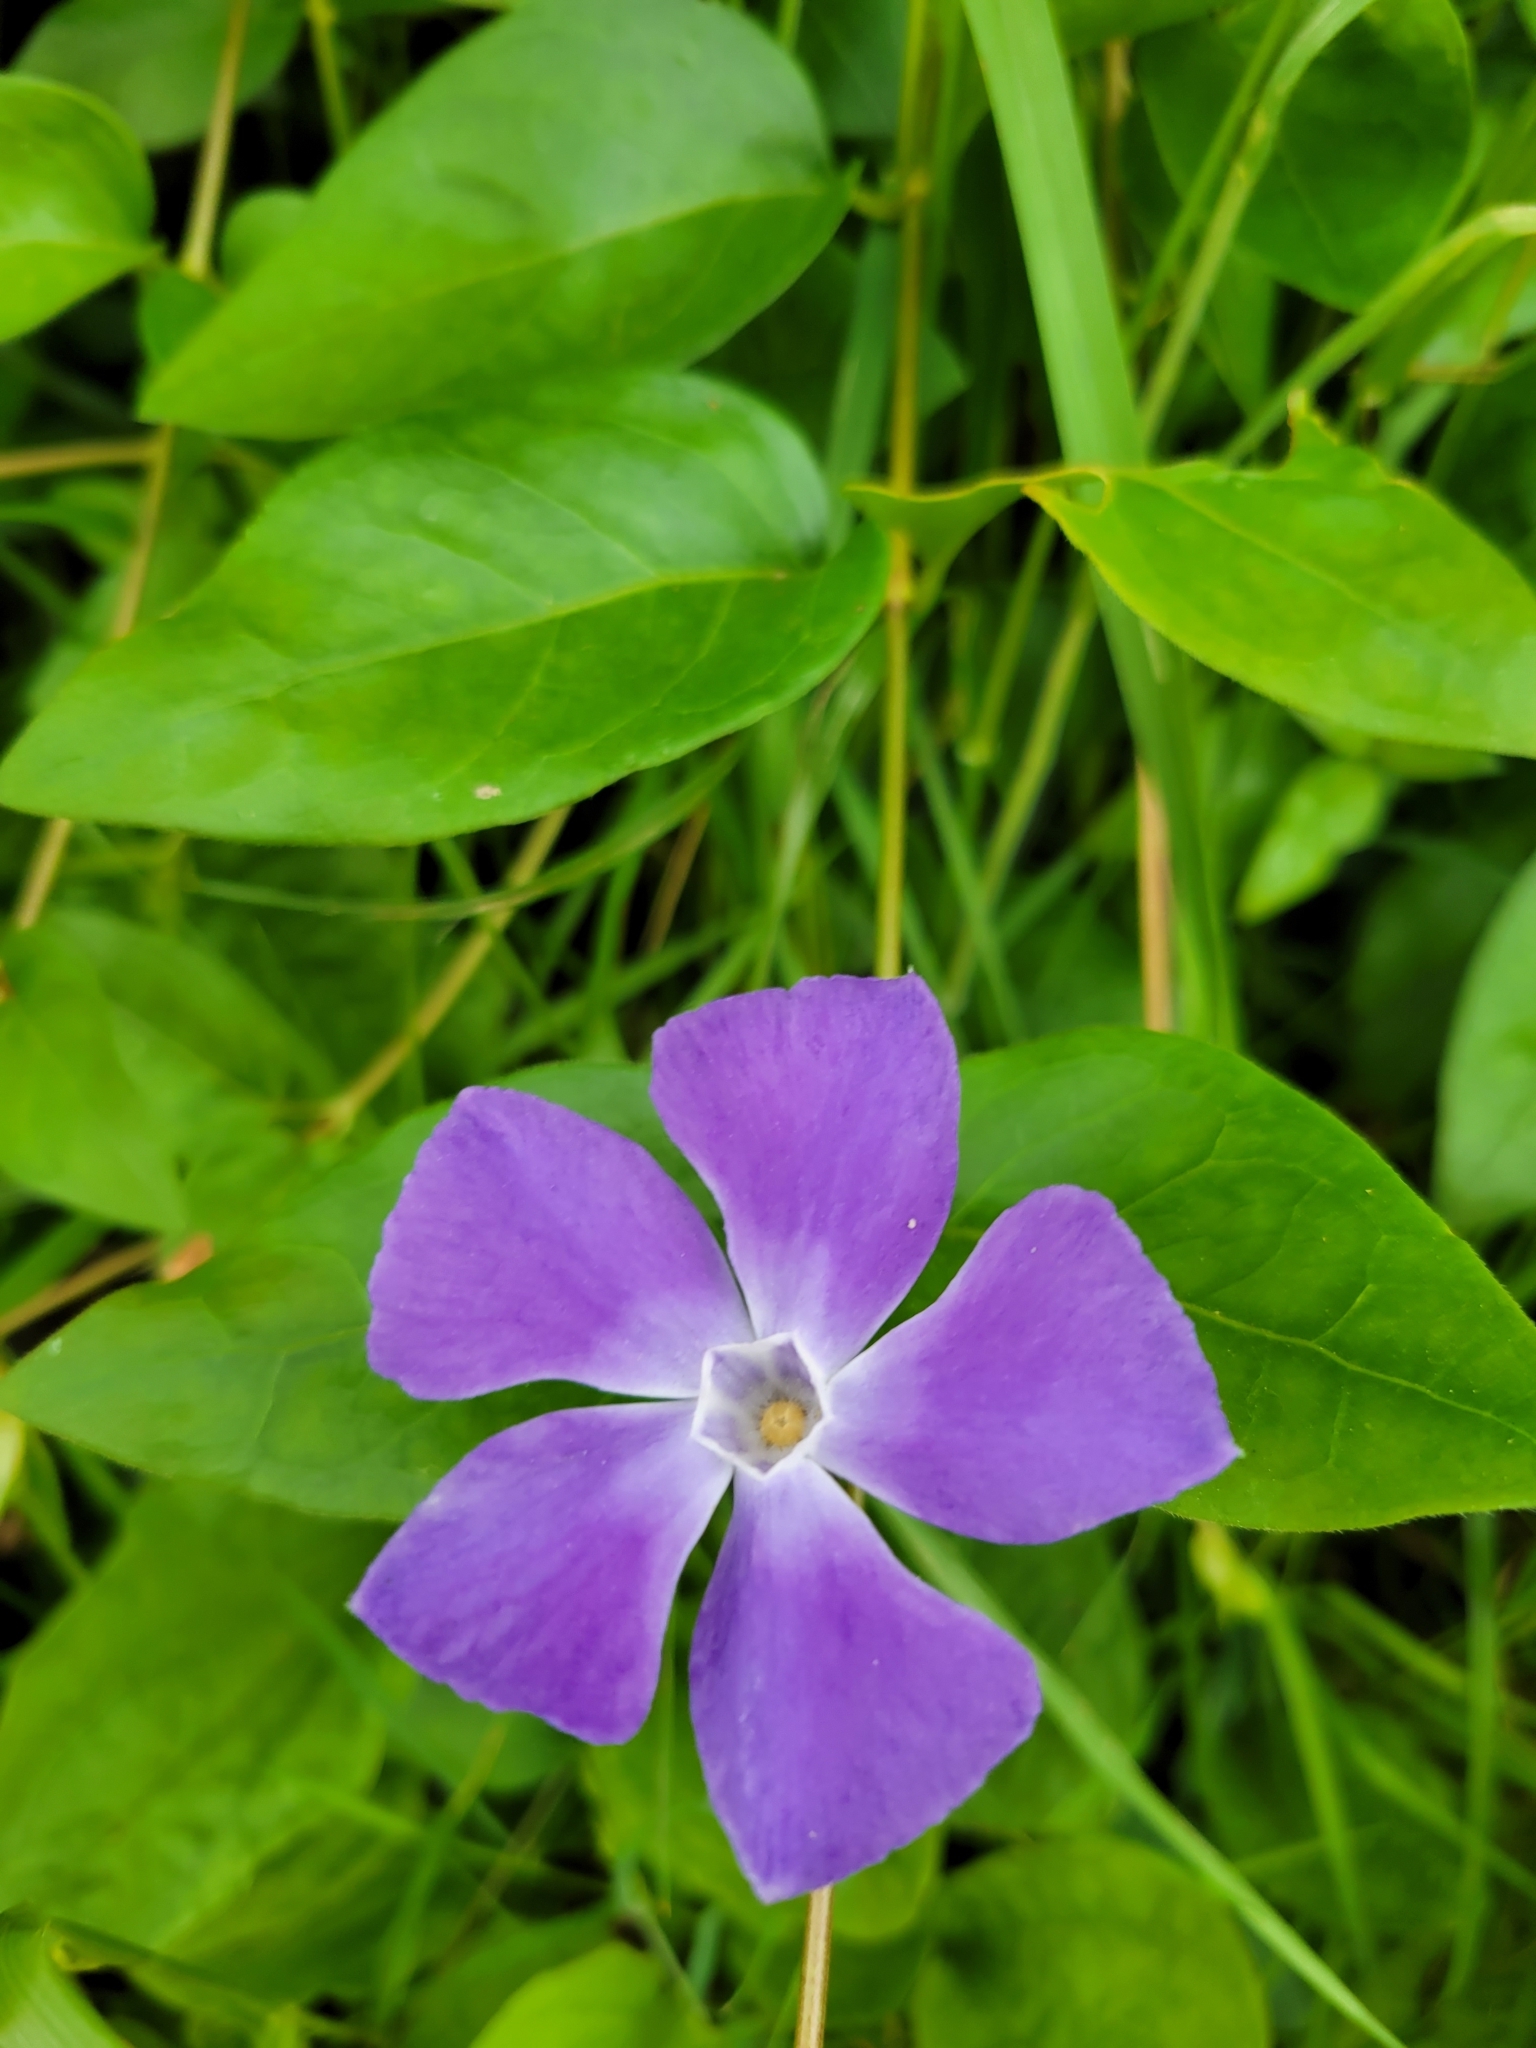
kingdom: Plantae
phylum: Tracheophyta
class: Magnoliopsida
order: Gentianales
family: Apocynaceae
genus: Vinca
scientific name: Vinca major
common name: Greater periwinkle
